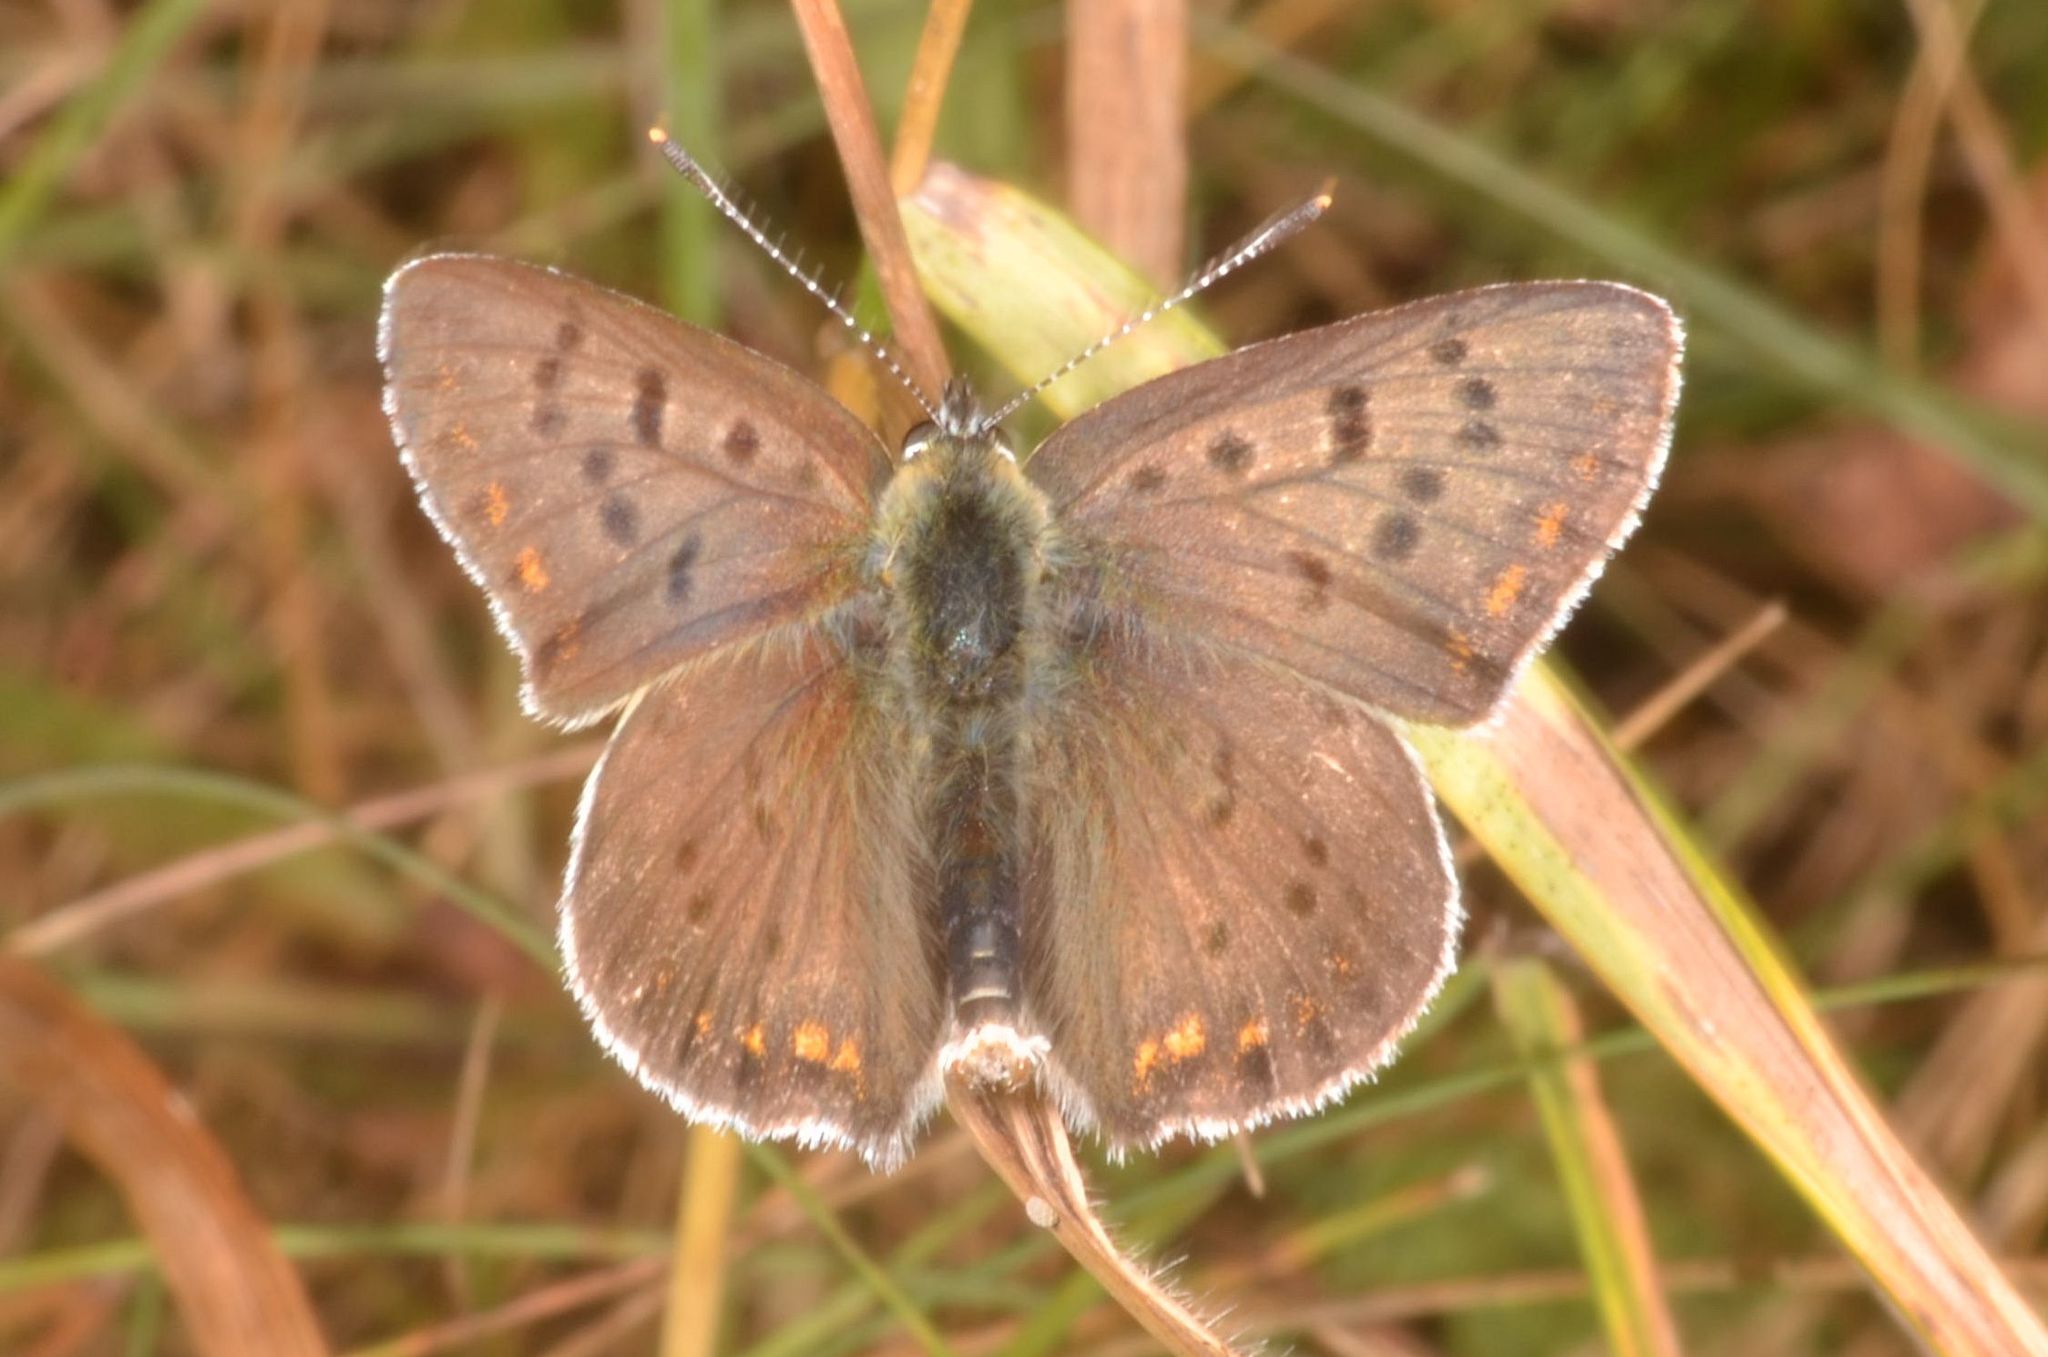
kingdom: Animalia
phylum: Arthropoda
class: Insecta
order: Lepidoptera
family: Lycaenidae
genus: Loweia
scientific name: Loweia tityrus
